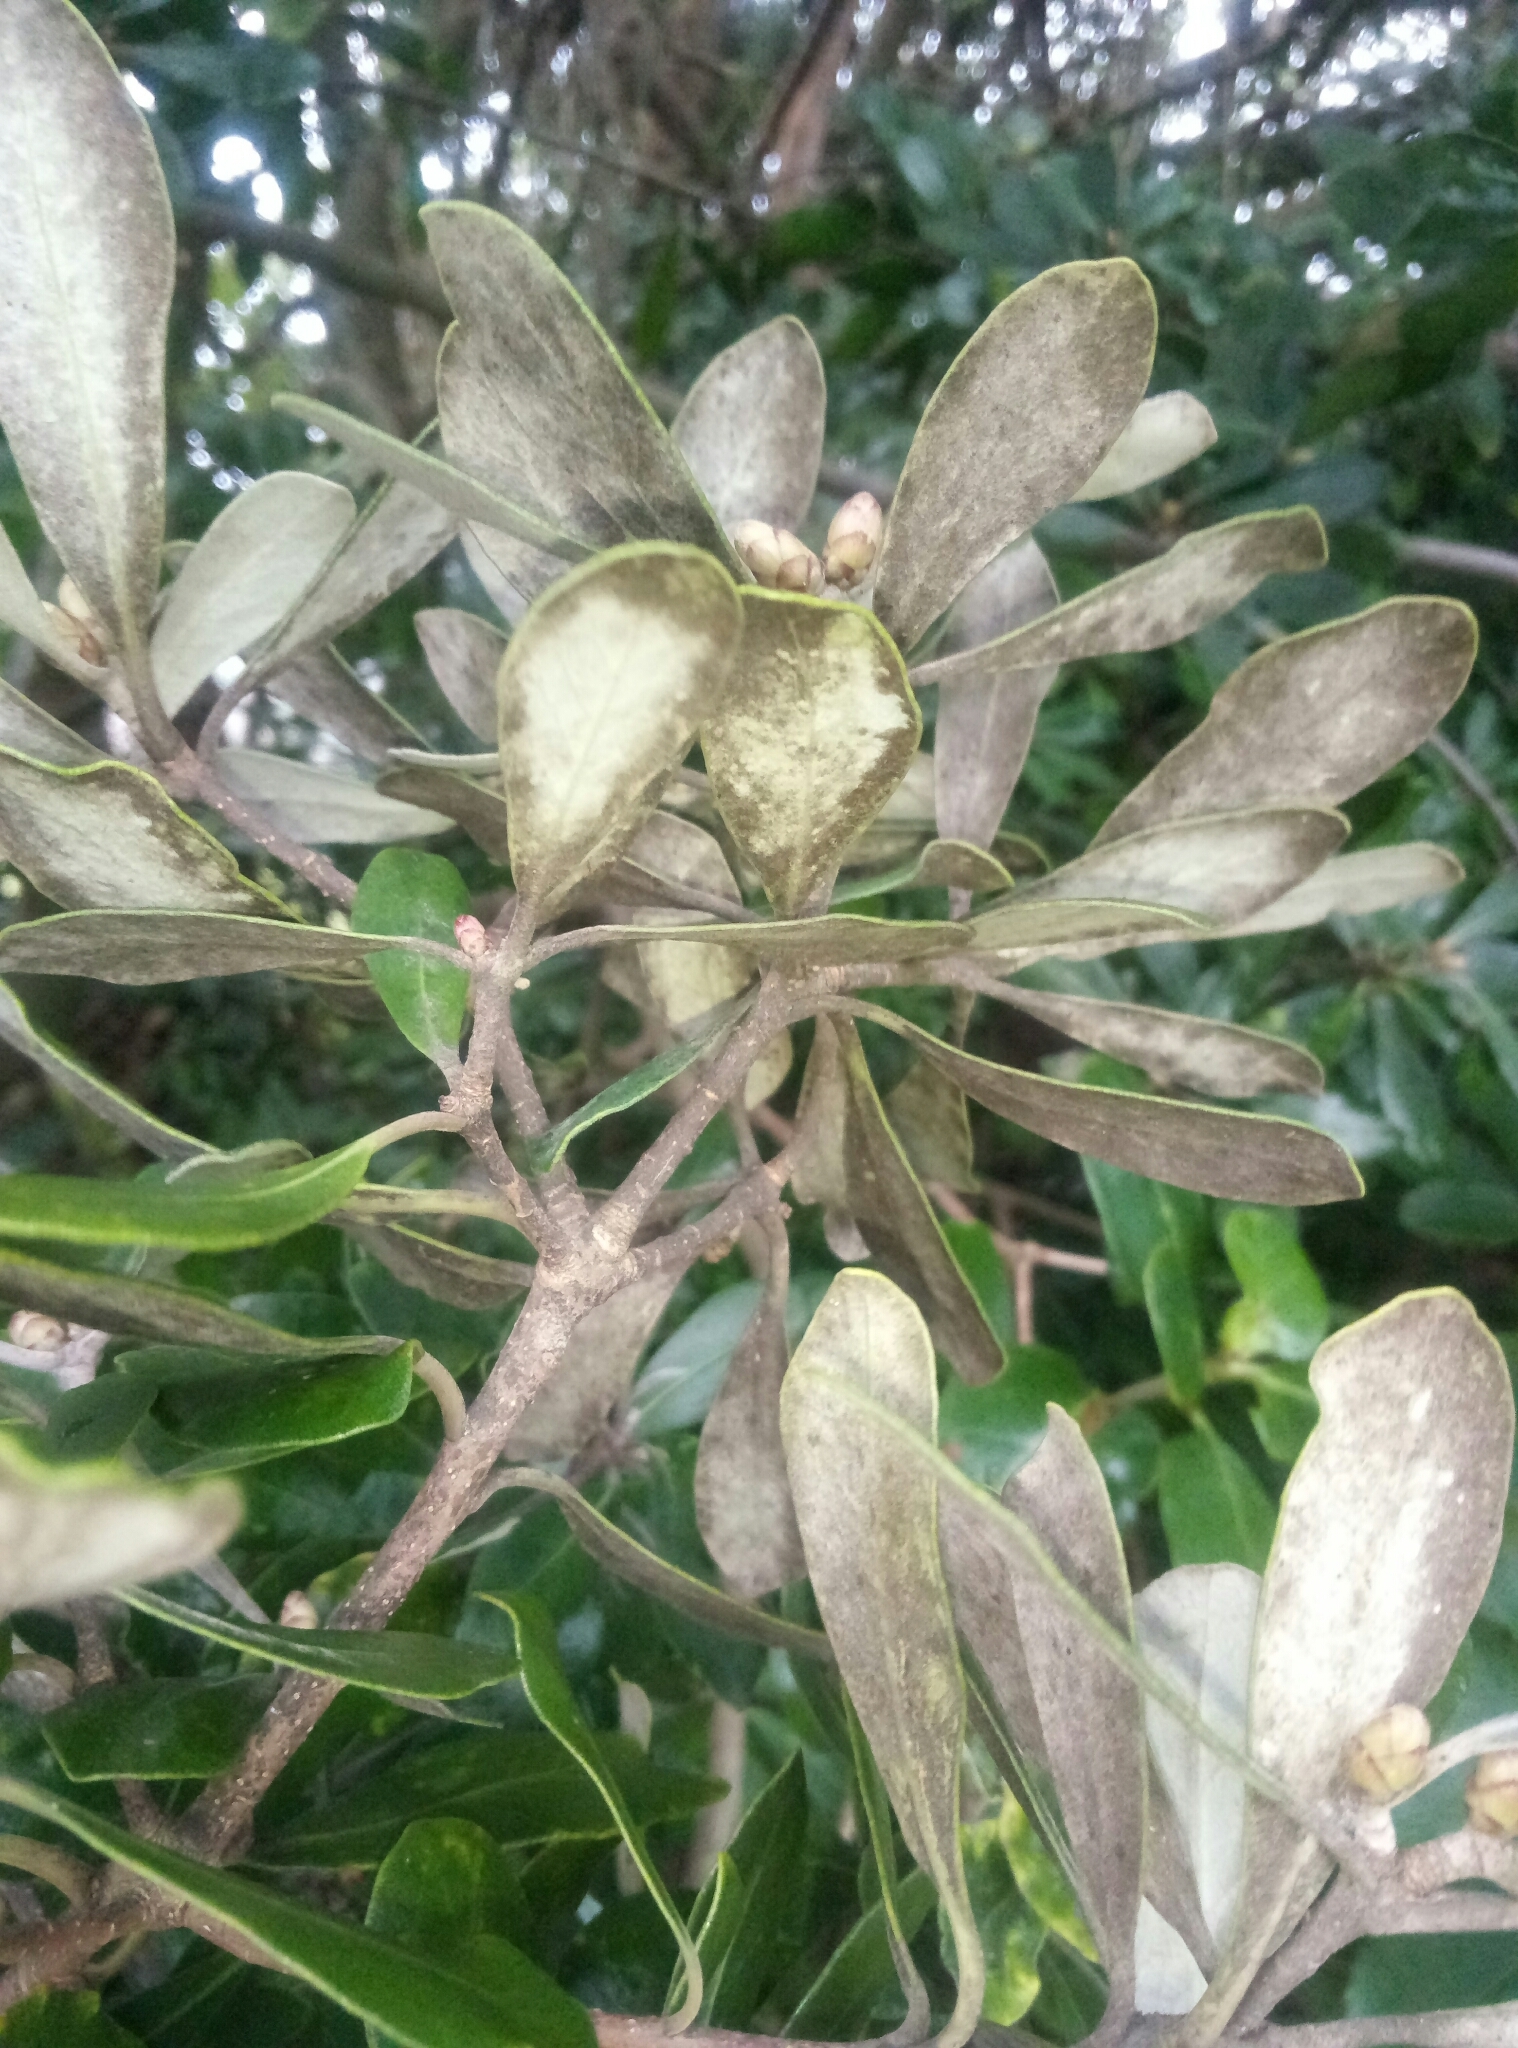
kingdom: Plantae
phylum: Tracheophyta
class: Magnoliopsida
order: Apiales
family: Pittosporaceae
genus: Pittosporum
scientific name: Pittosporum crassifolium
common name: Karo
